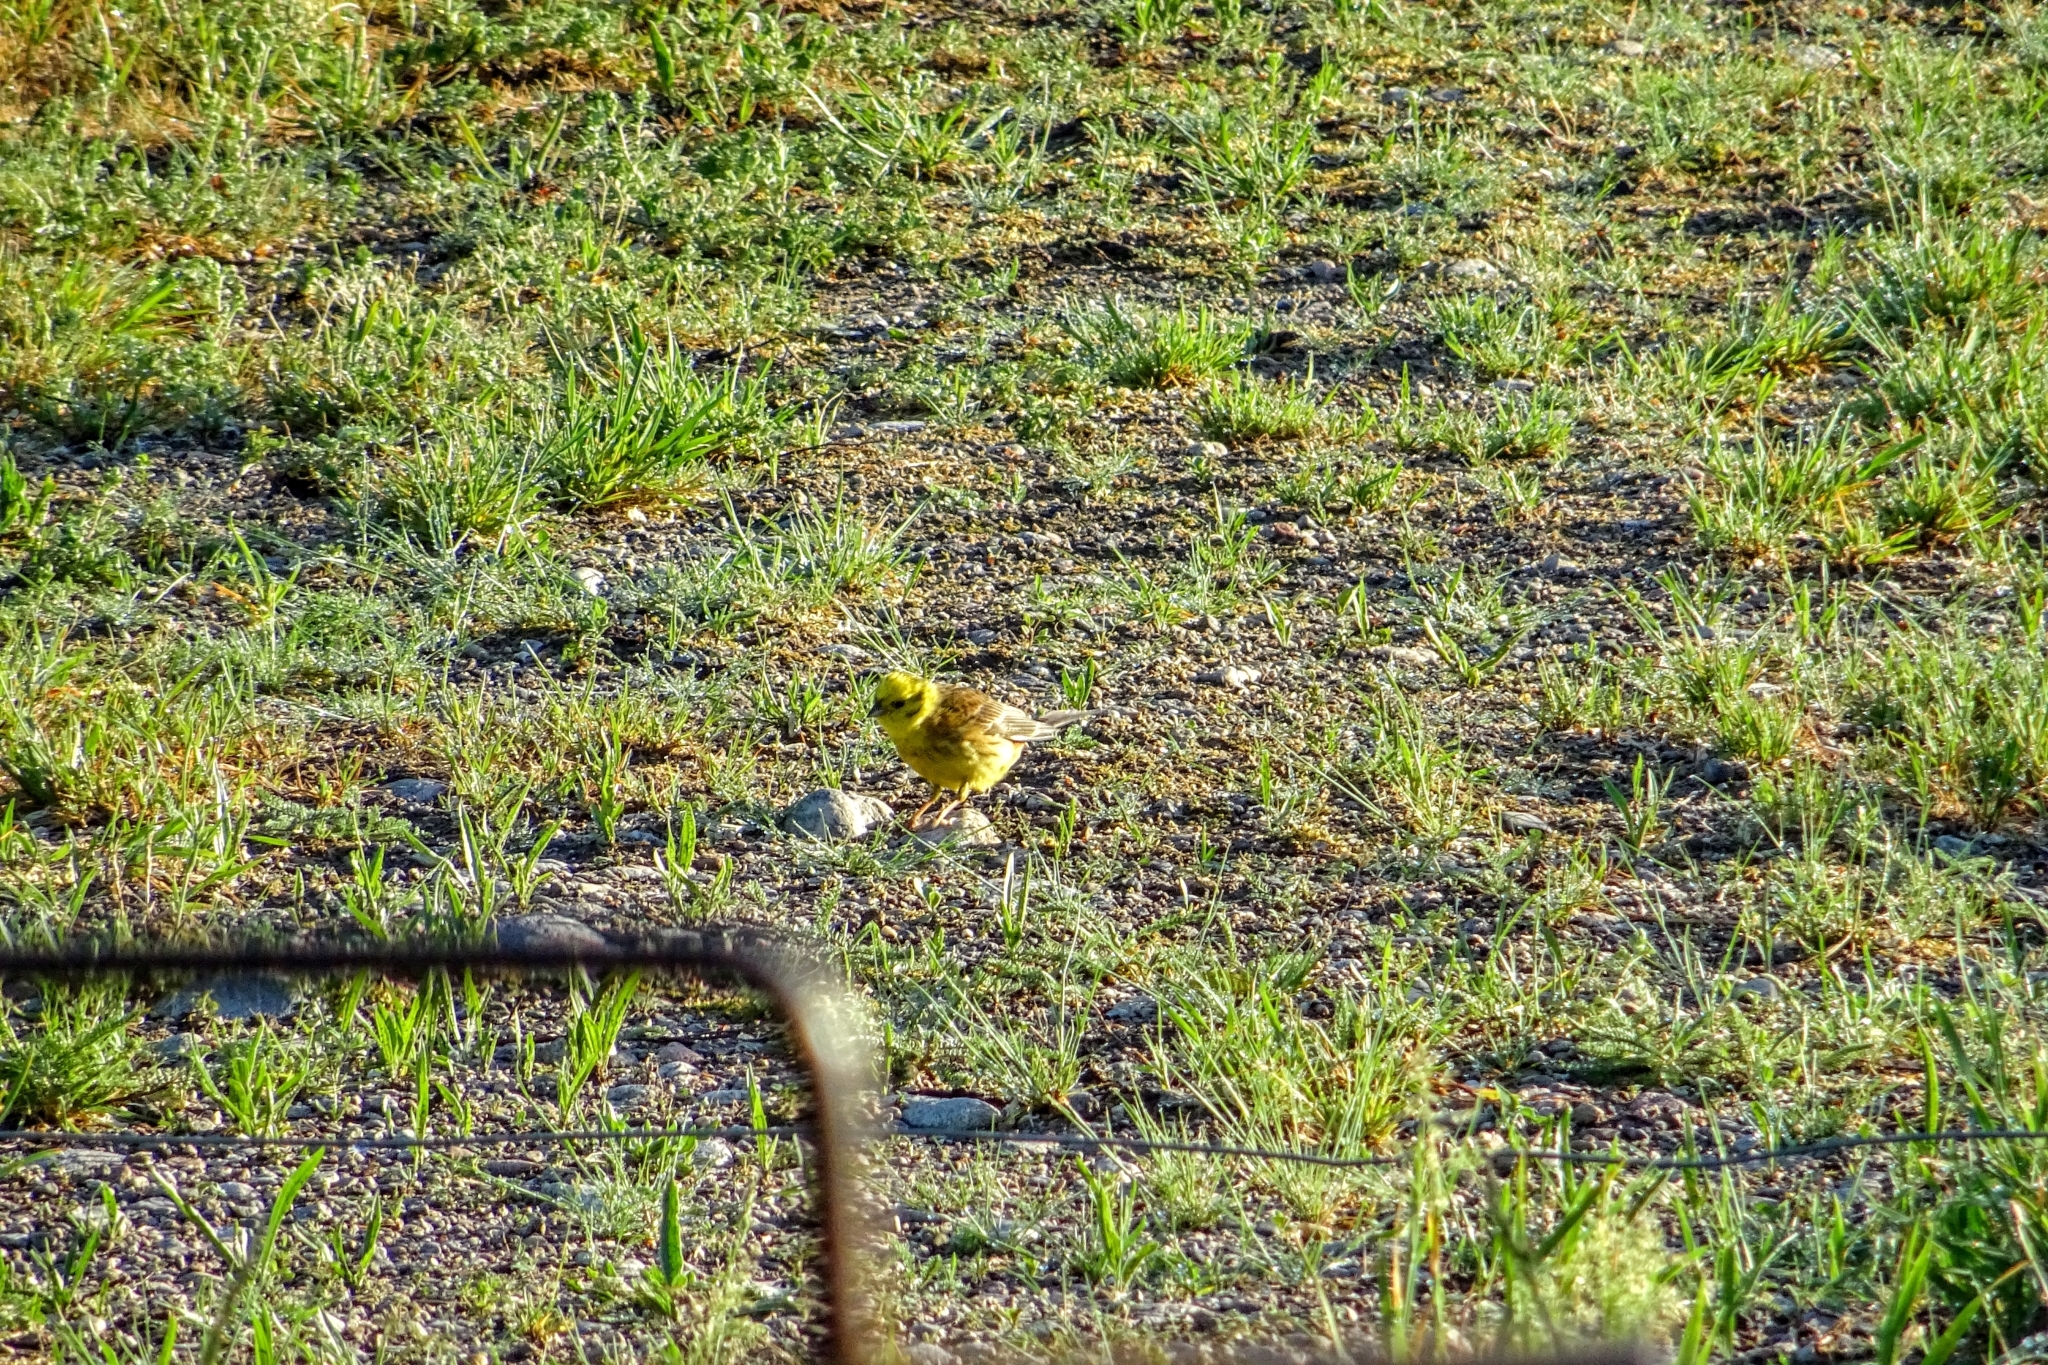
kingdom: Animalia
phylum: Chordata
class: Aves
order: Passeriformes
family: Emberizidae
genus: Emberiza
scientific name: Emberiza citrinella
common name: Yellowhammer
